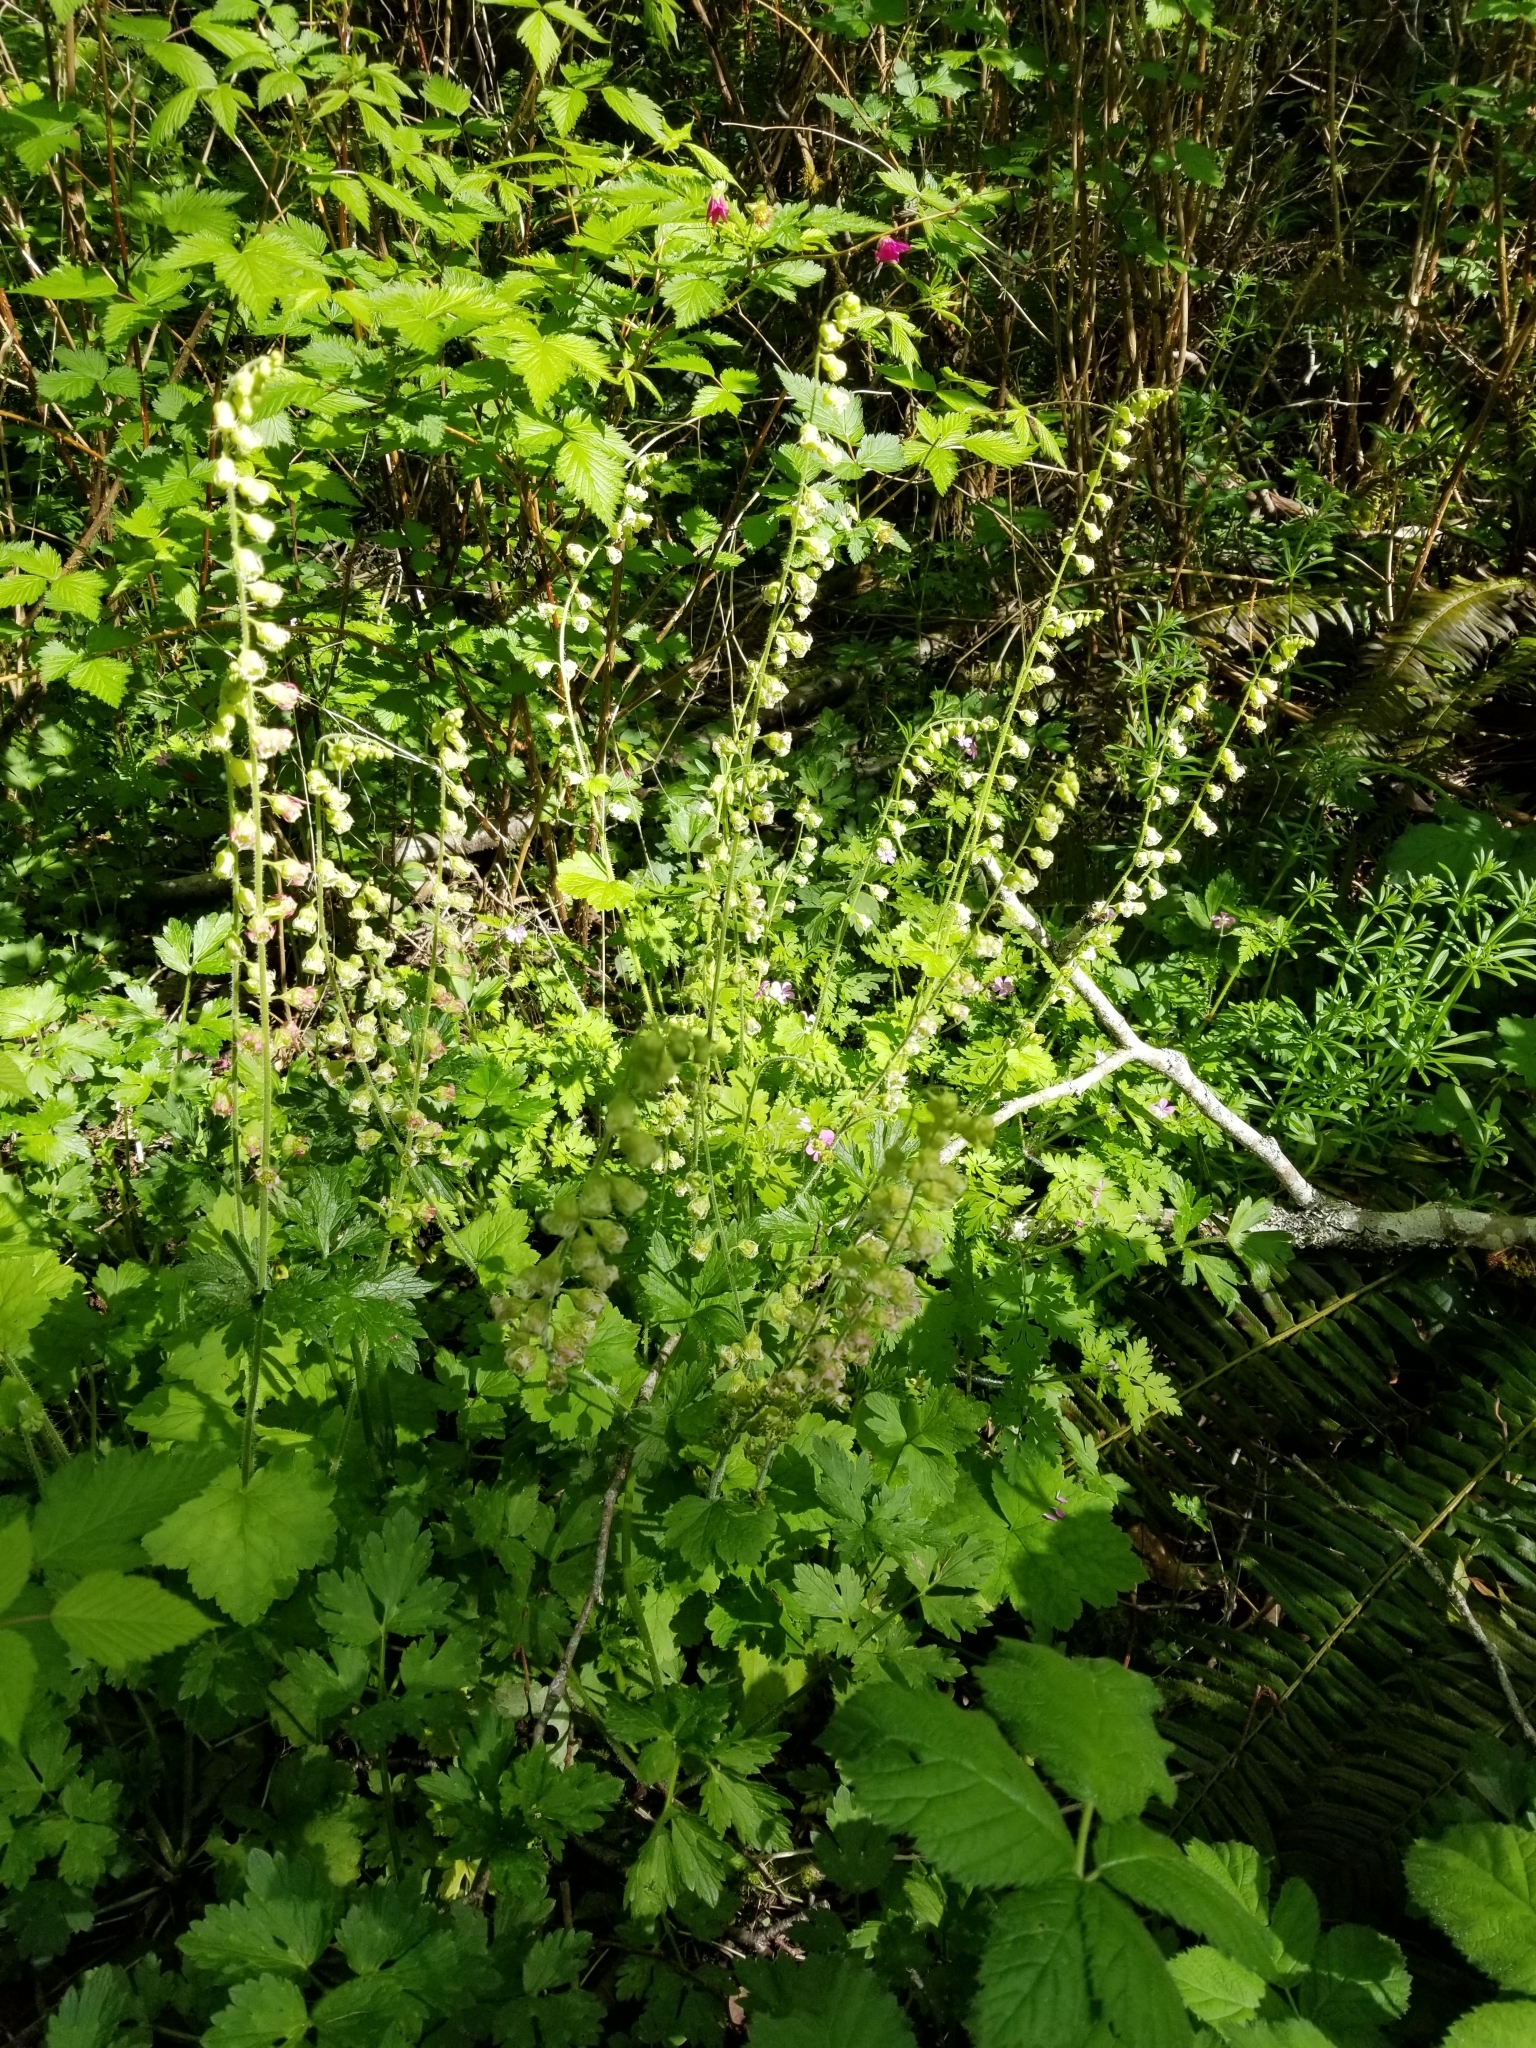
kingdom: Plantae
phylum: Tracheophyta
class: Magnoliopsida
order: Saxifragales
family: Saxifragaceae
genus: Tellima
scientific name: Tellima grandiflora
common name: Fringecups
